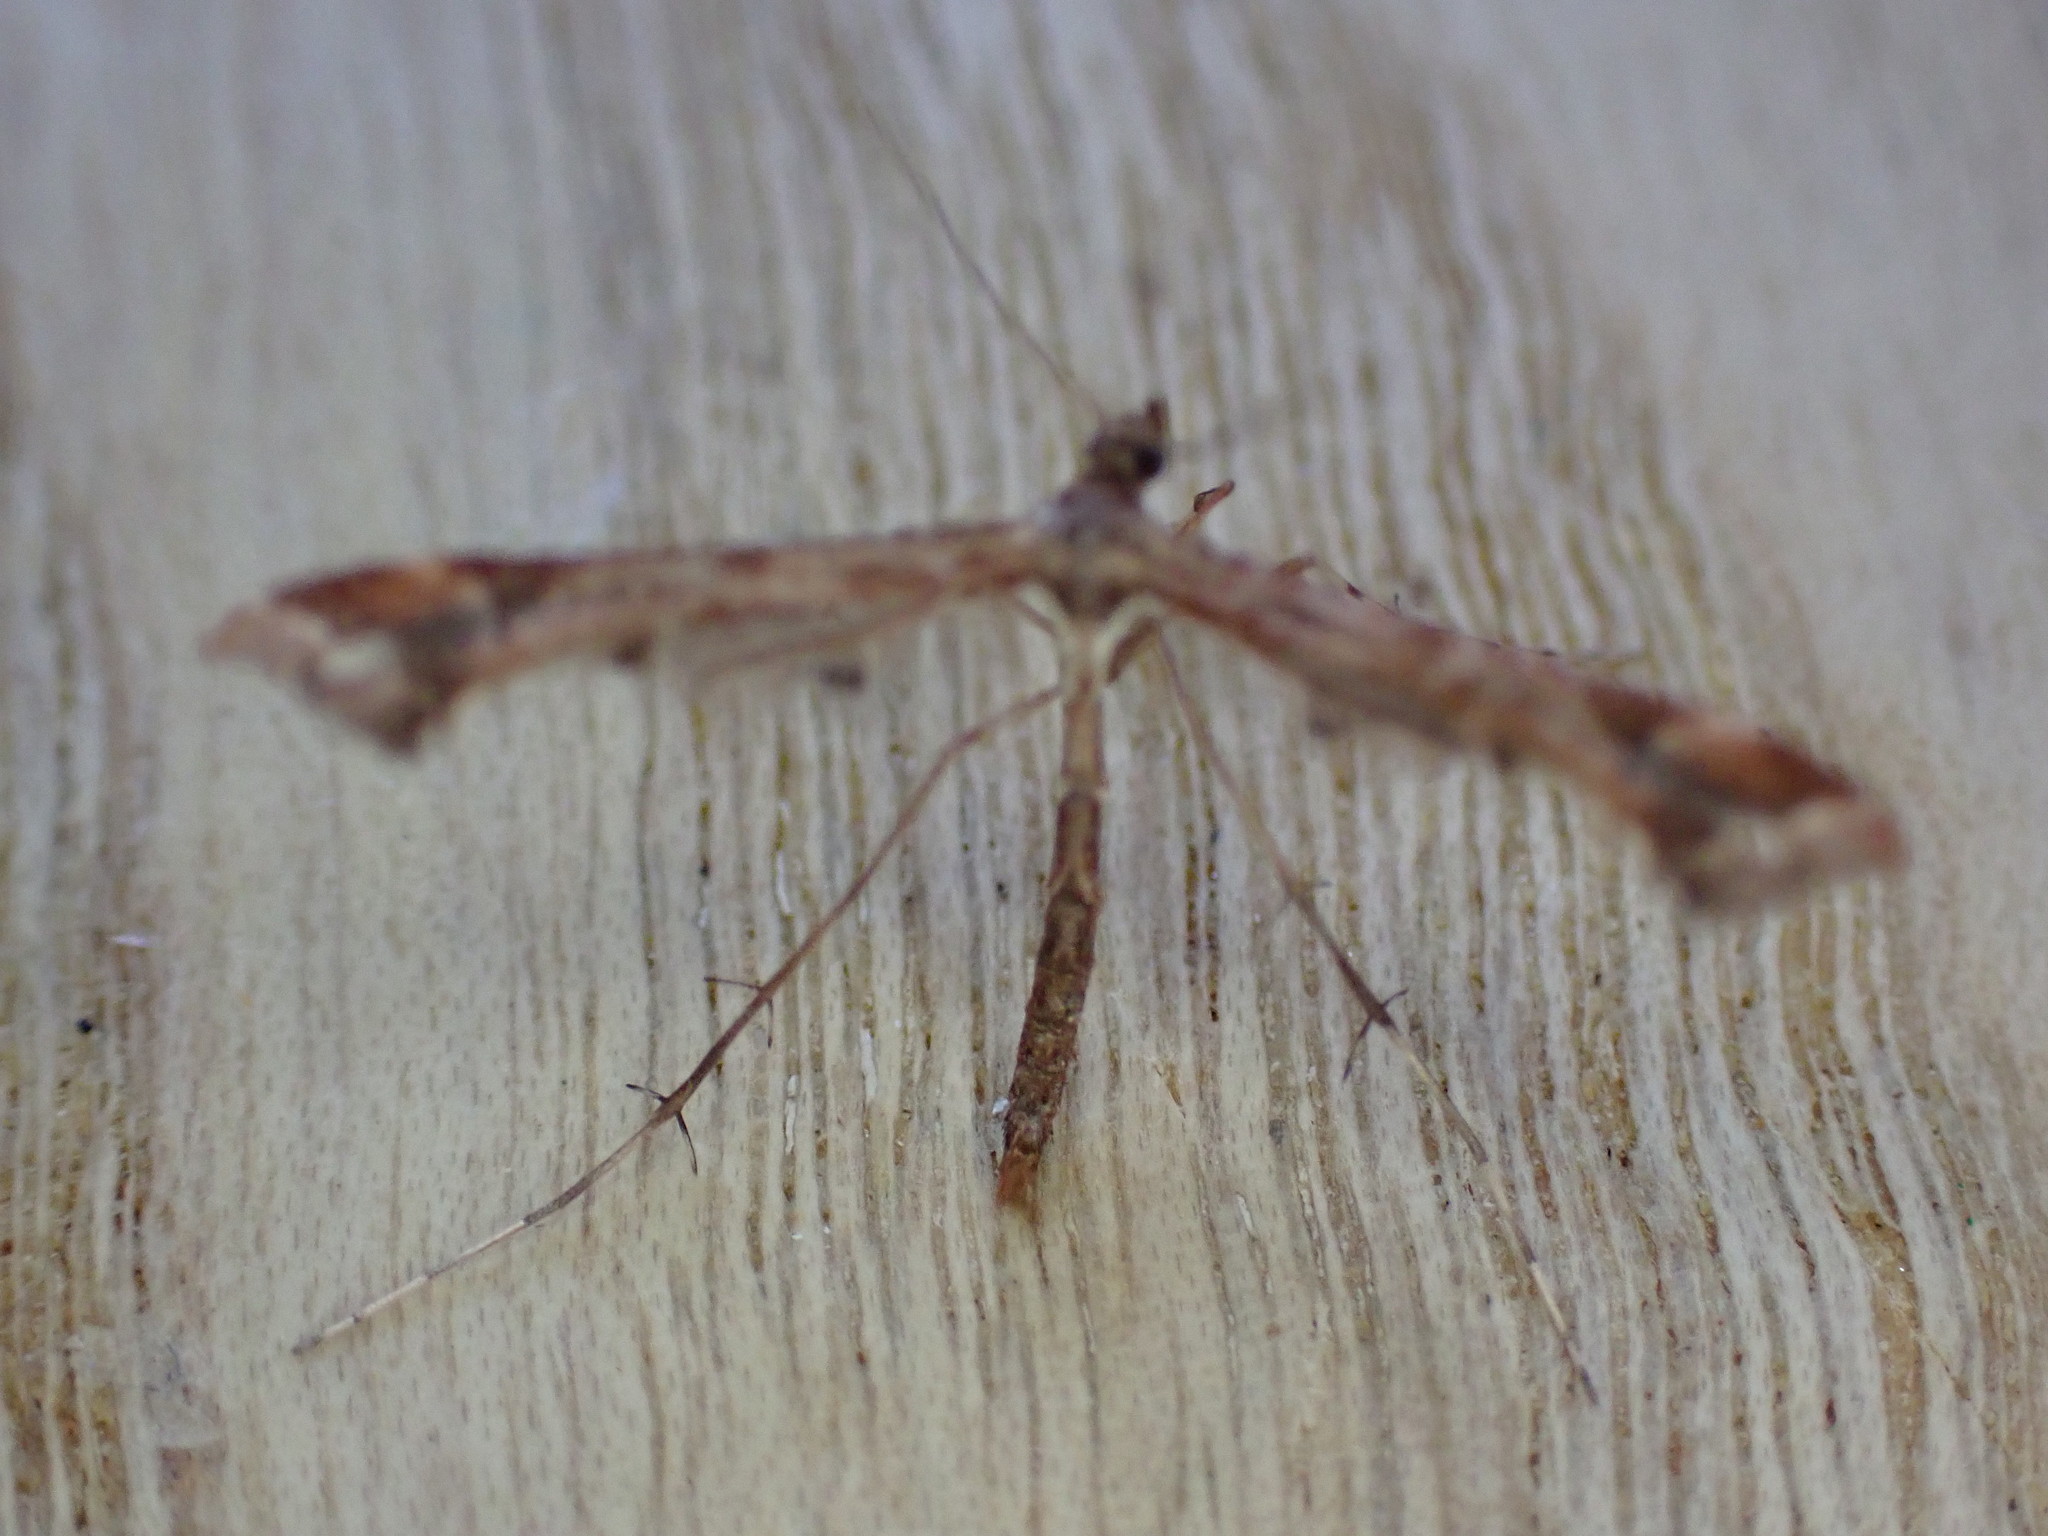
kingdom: Animalia
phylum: Arthropoda
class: Insecta
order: Lepidoptera
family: Pterophoridae
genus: Amblyptilia
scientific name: Amblyptilia acanthadactyla
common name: Beautiful plume
